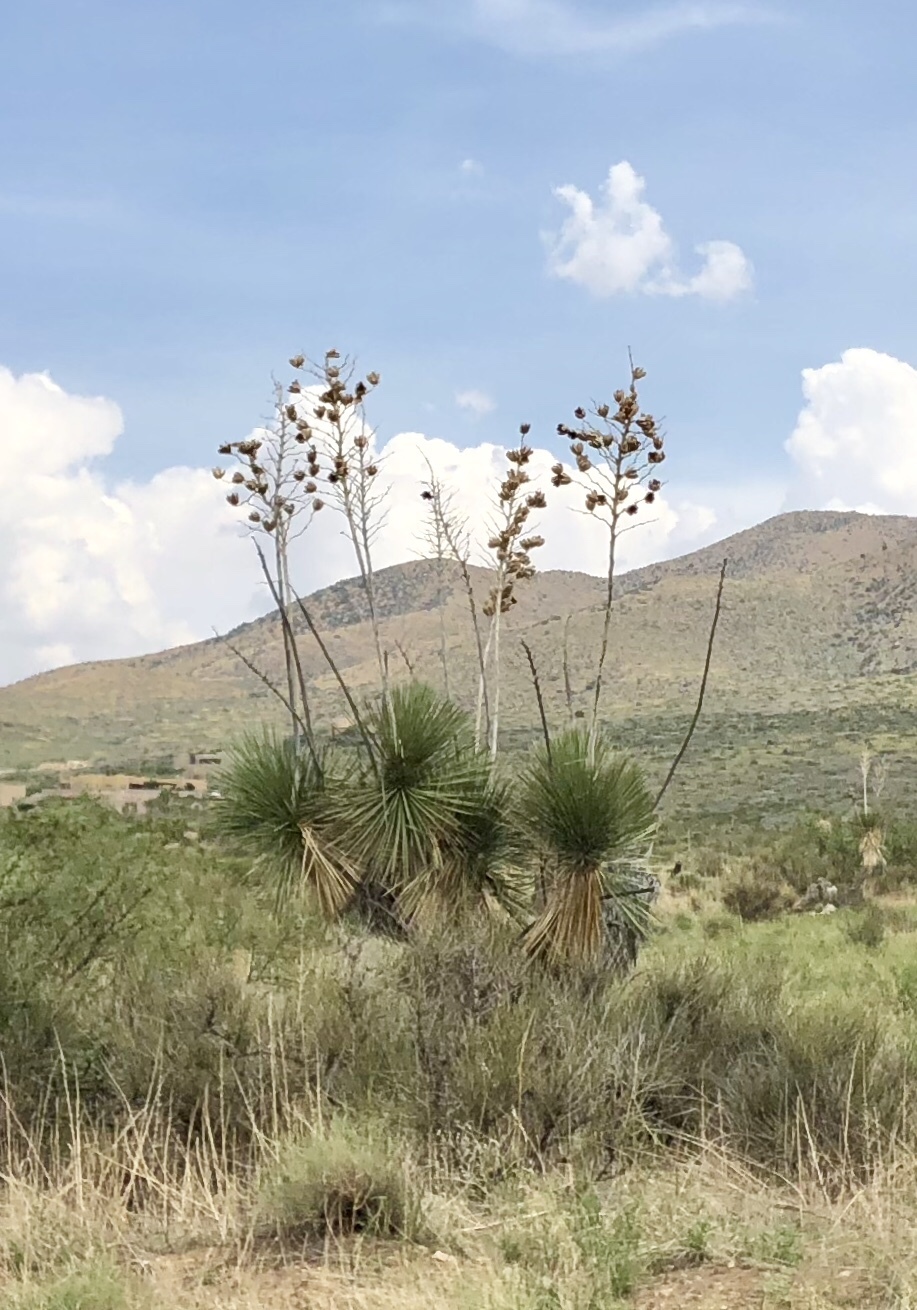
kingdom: Plantae
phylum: Tracheophyta
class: Liliopsida
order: Asparagales
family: Asparagaceae
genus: Yucca
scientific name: Yucca elata
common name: Palmella
